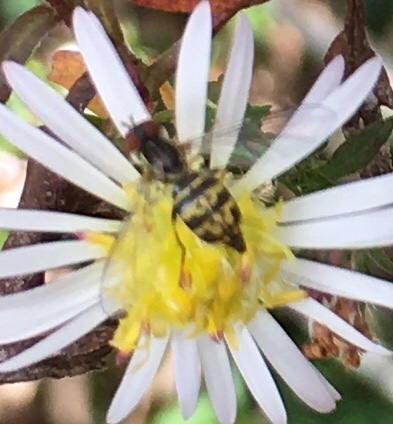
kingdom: Animalia
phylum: Arthropoda
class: Insecta
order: Diptera
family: Syrphidae
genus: Toxomerus
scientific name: Toxomerus geminatus
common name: Eastern calligrapher
